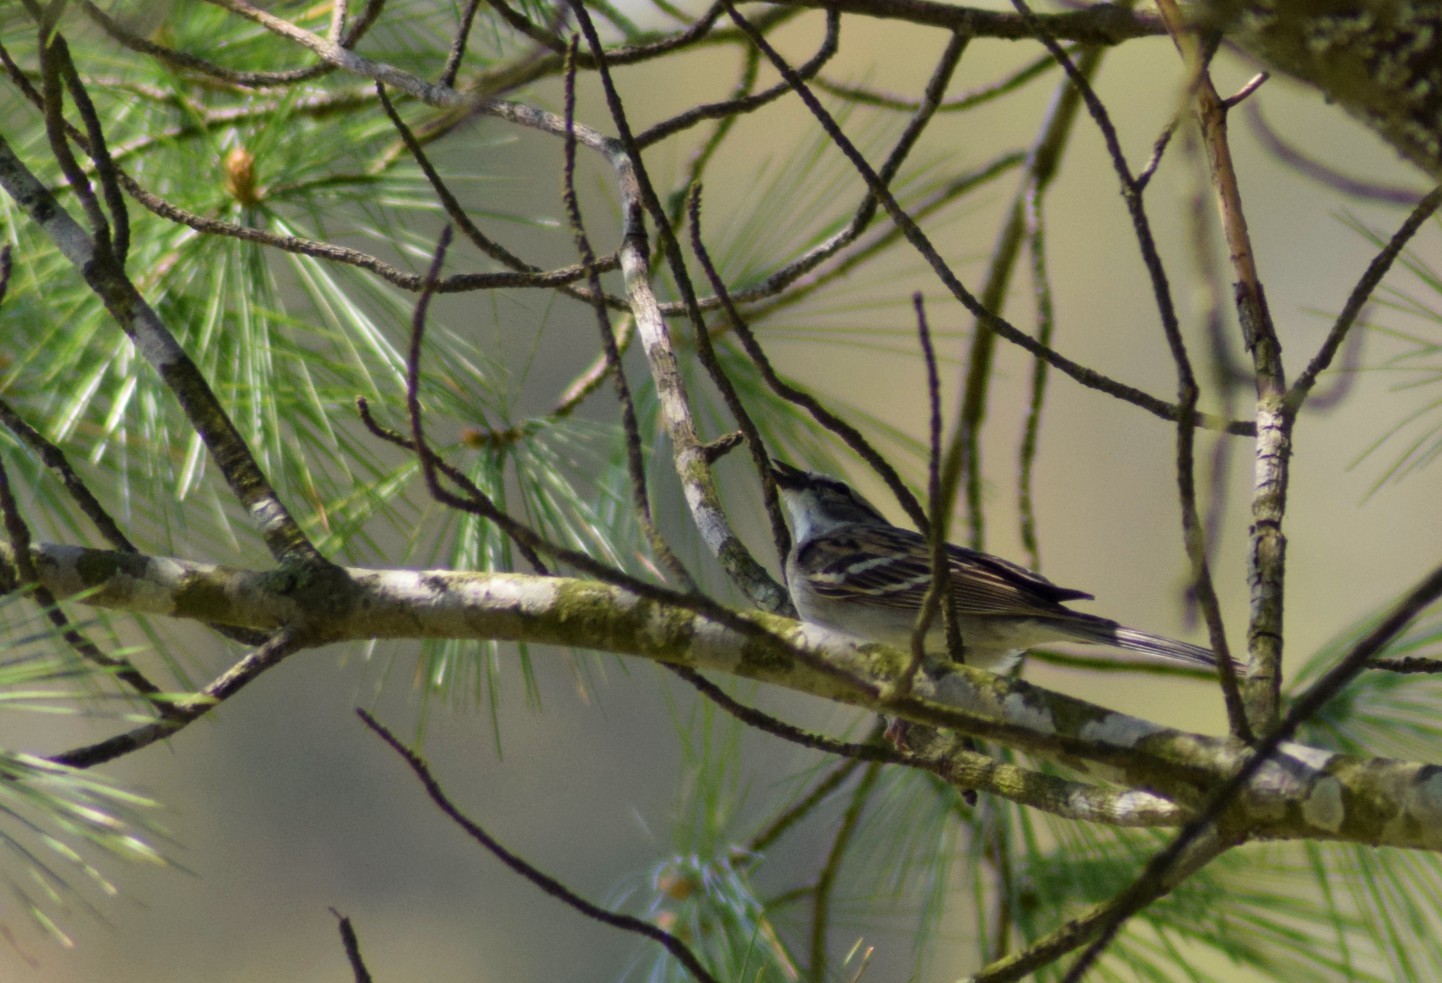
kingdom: Animalia
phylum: Chordata
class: Aves
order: Passeriformes
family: Passerellidae
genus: Spizella
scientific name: Spizella passerina
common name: Chipping sparrow
